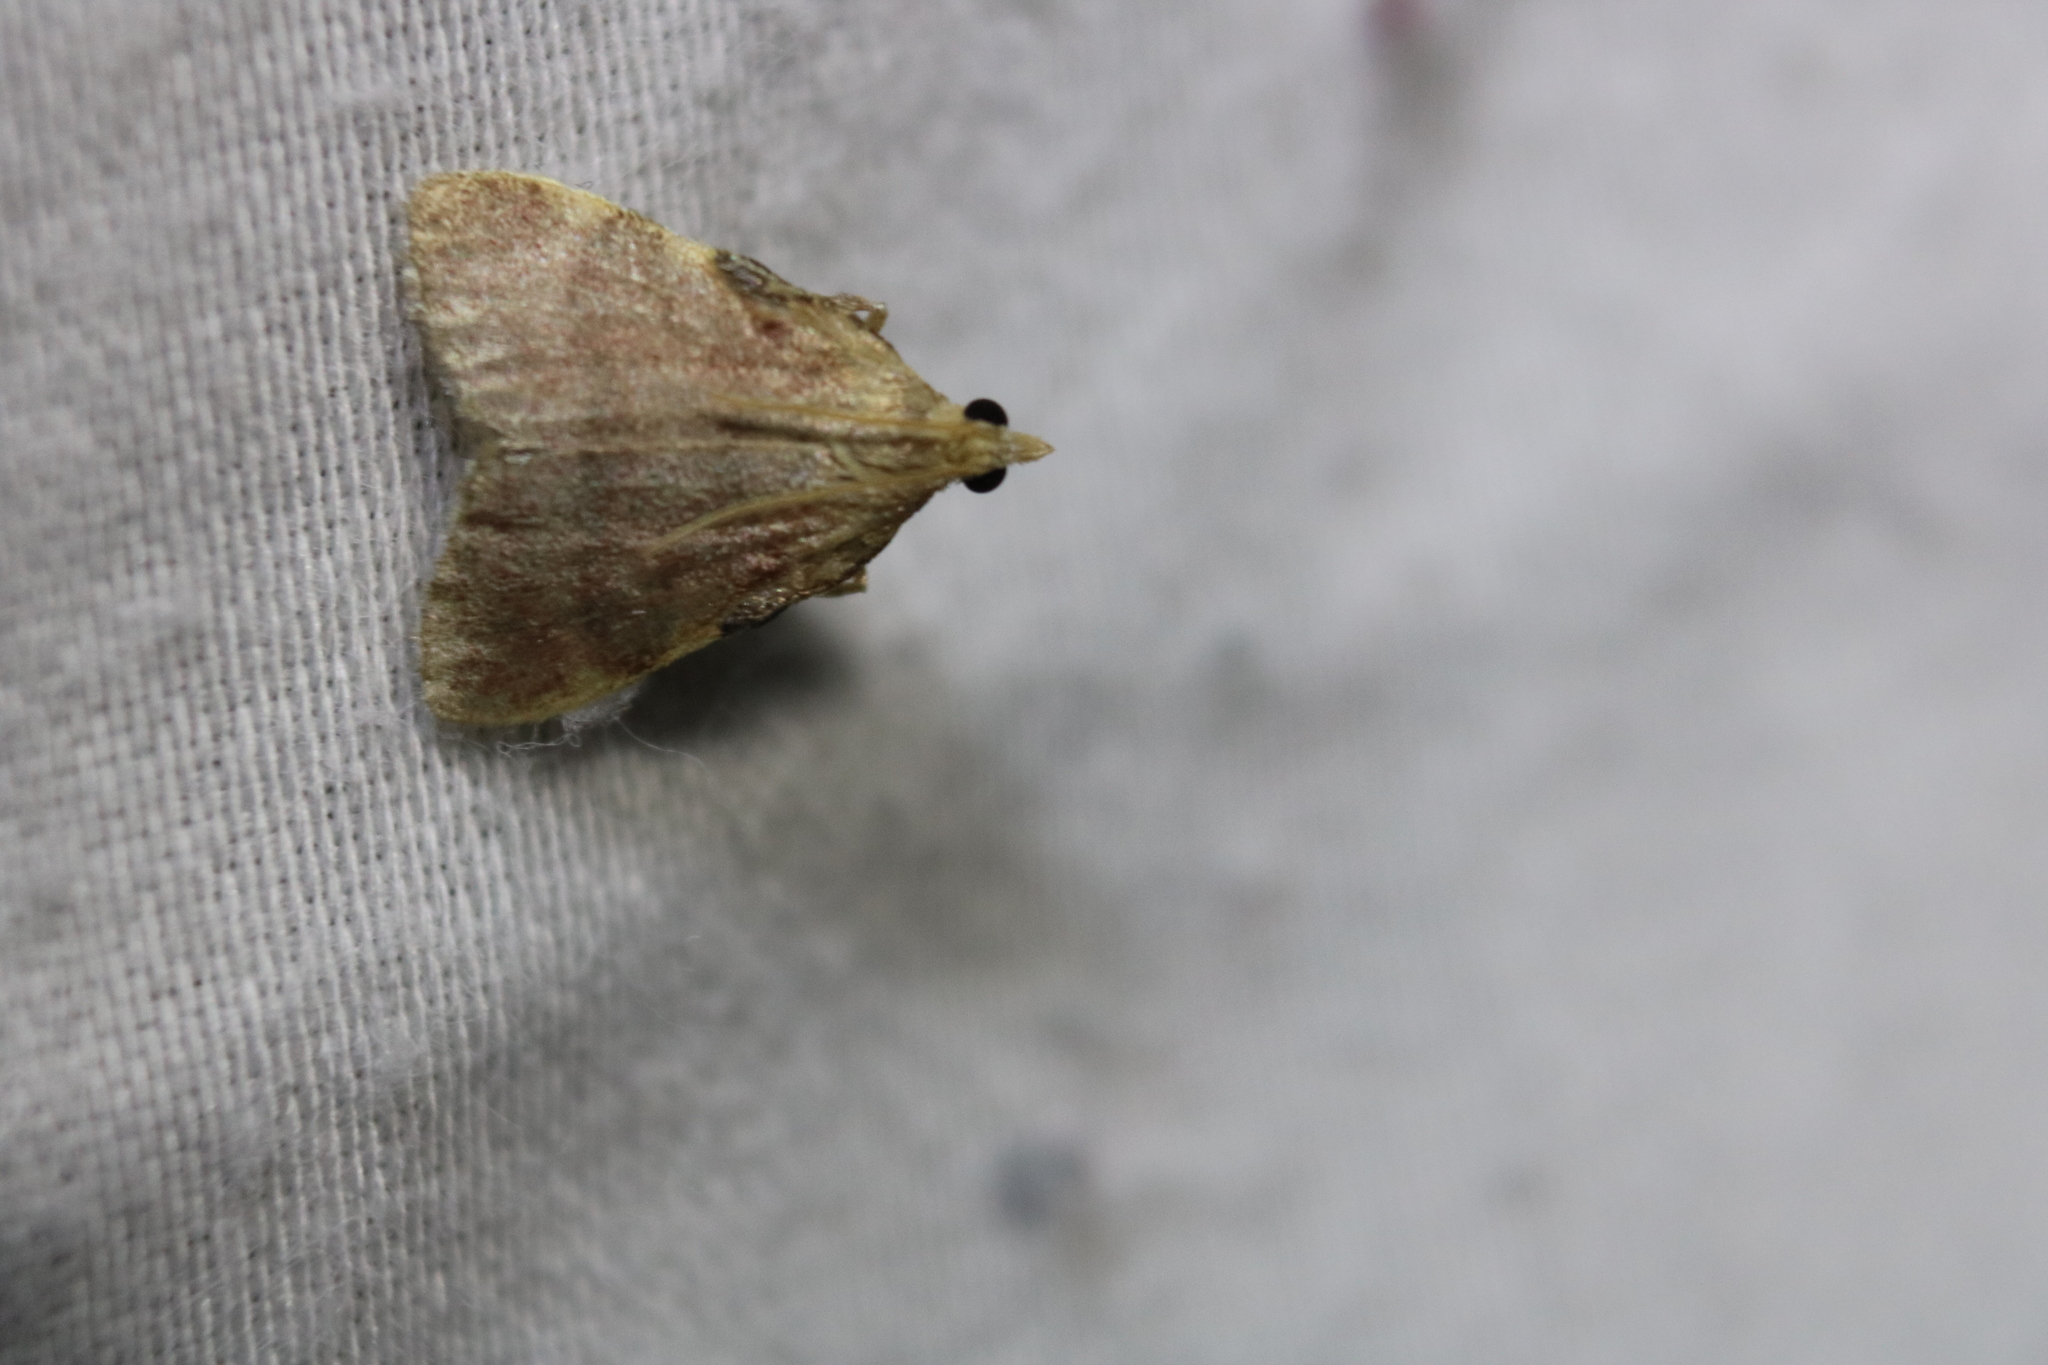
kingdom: Animalia
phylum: Arthropoda
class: Insecta
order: Lepidoptera
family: Pyralidae
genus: Condylolomia
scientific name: Condylolomia participialis
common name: Drab condylolomia moth
